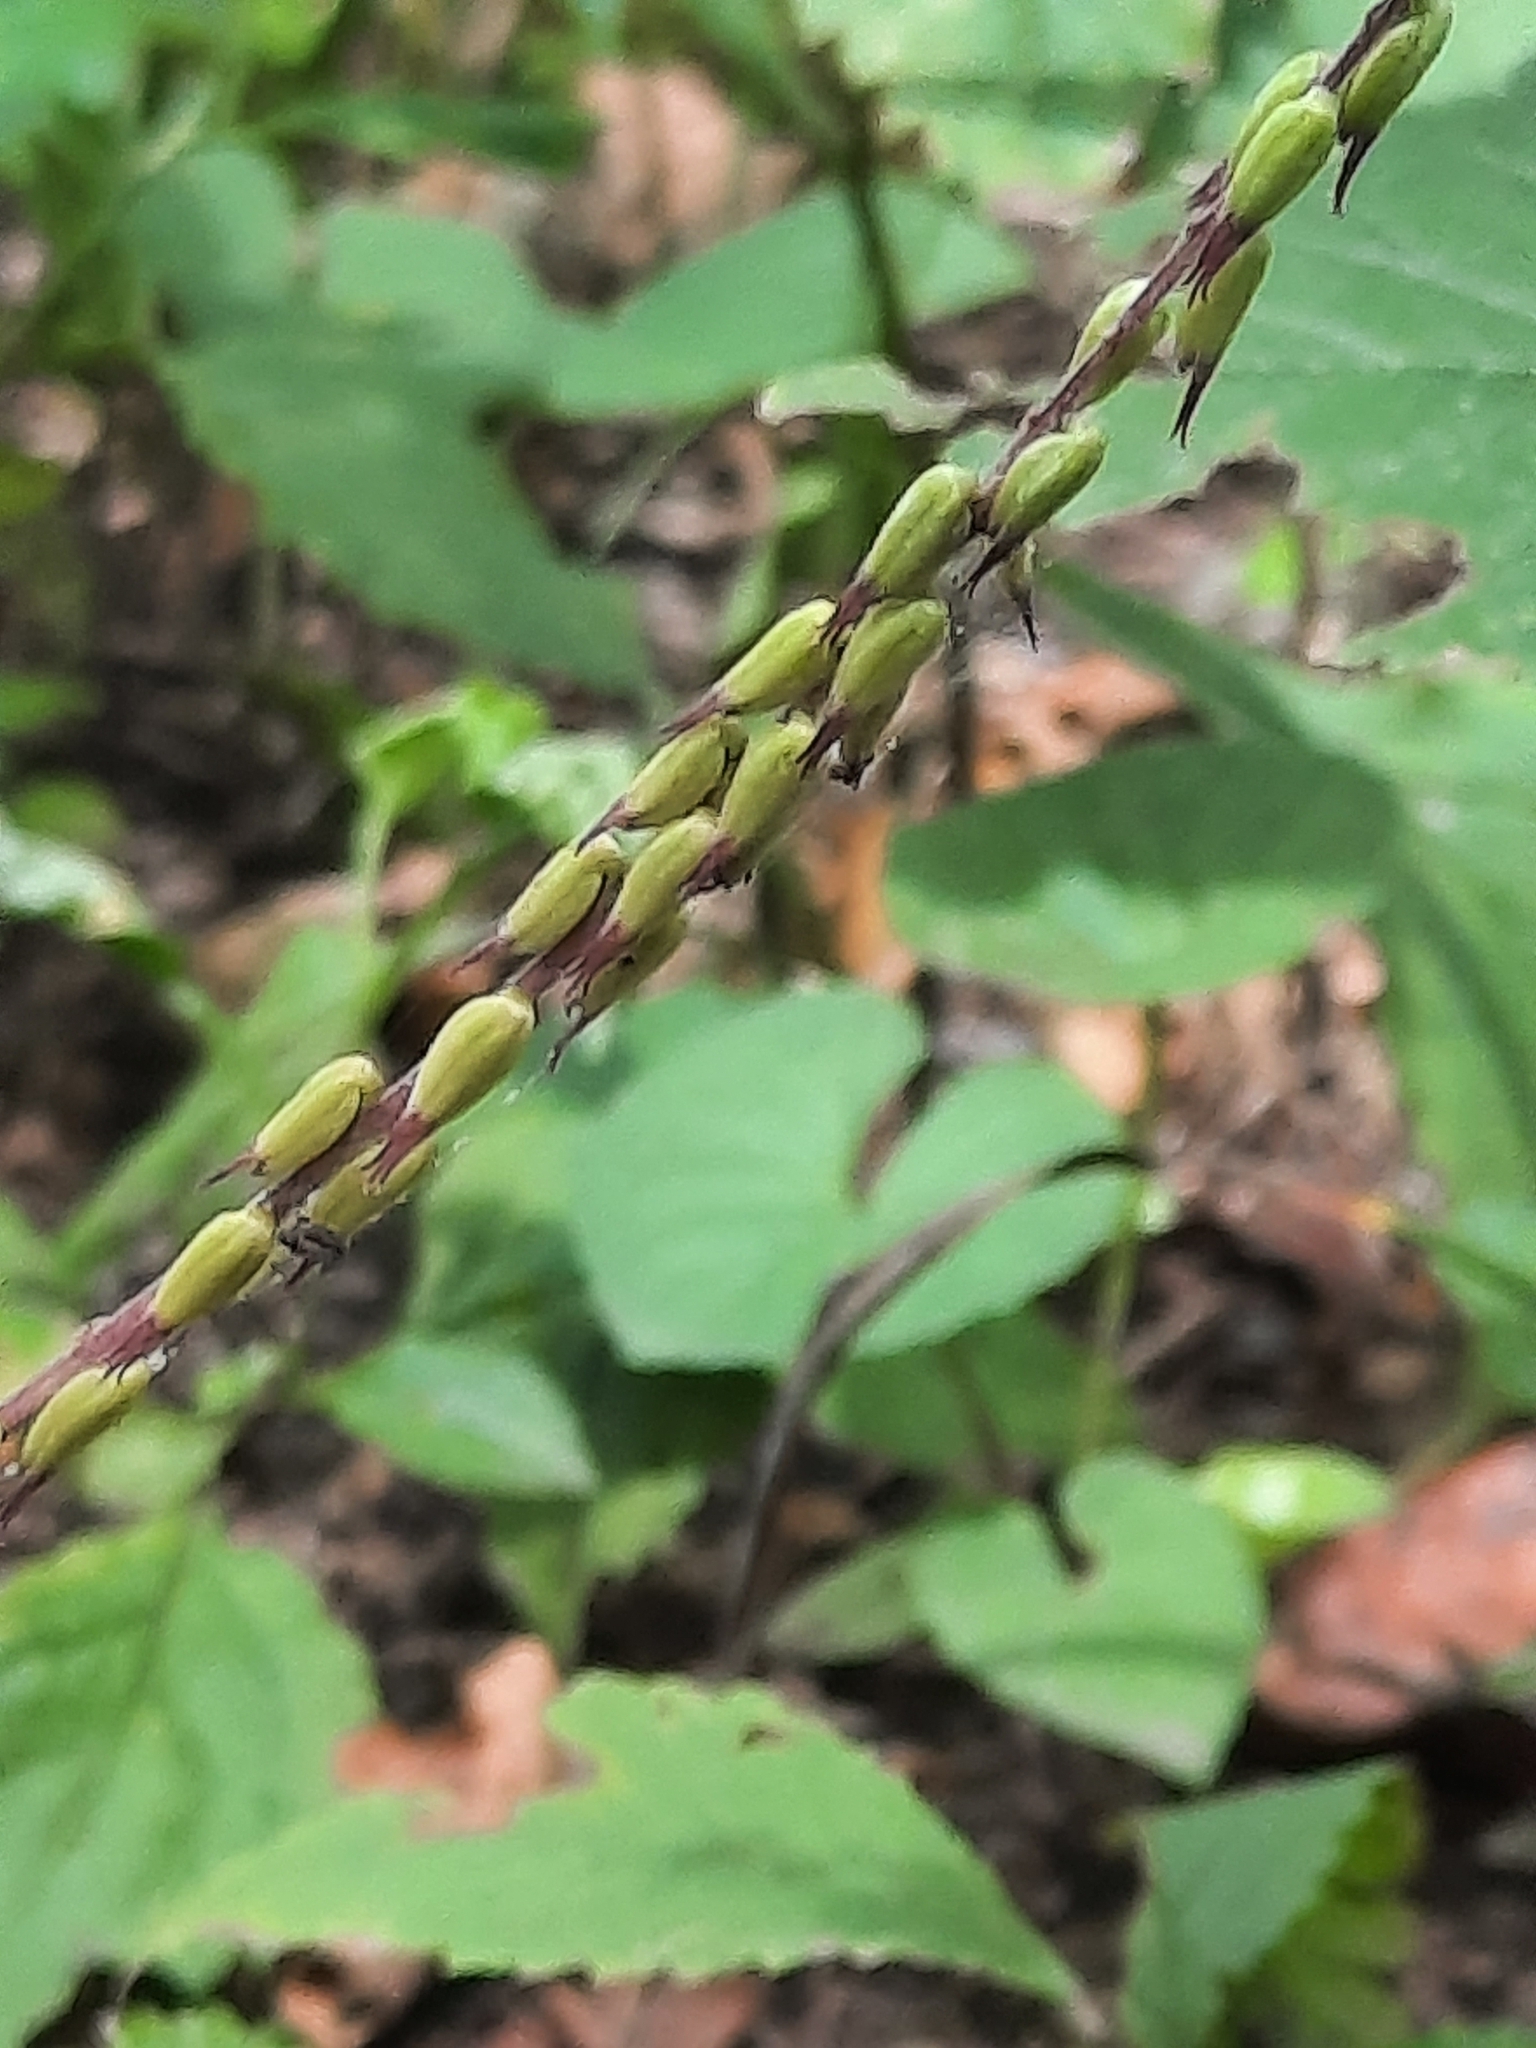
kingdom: Plantae
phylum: Tracheophyta
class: Magnoliopsida
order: Lamiales
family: Phrymaceae
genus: Phryma
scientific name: Phryma leptostachya
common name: American lopseed
